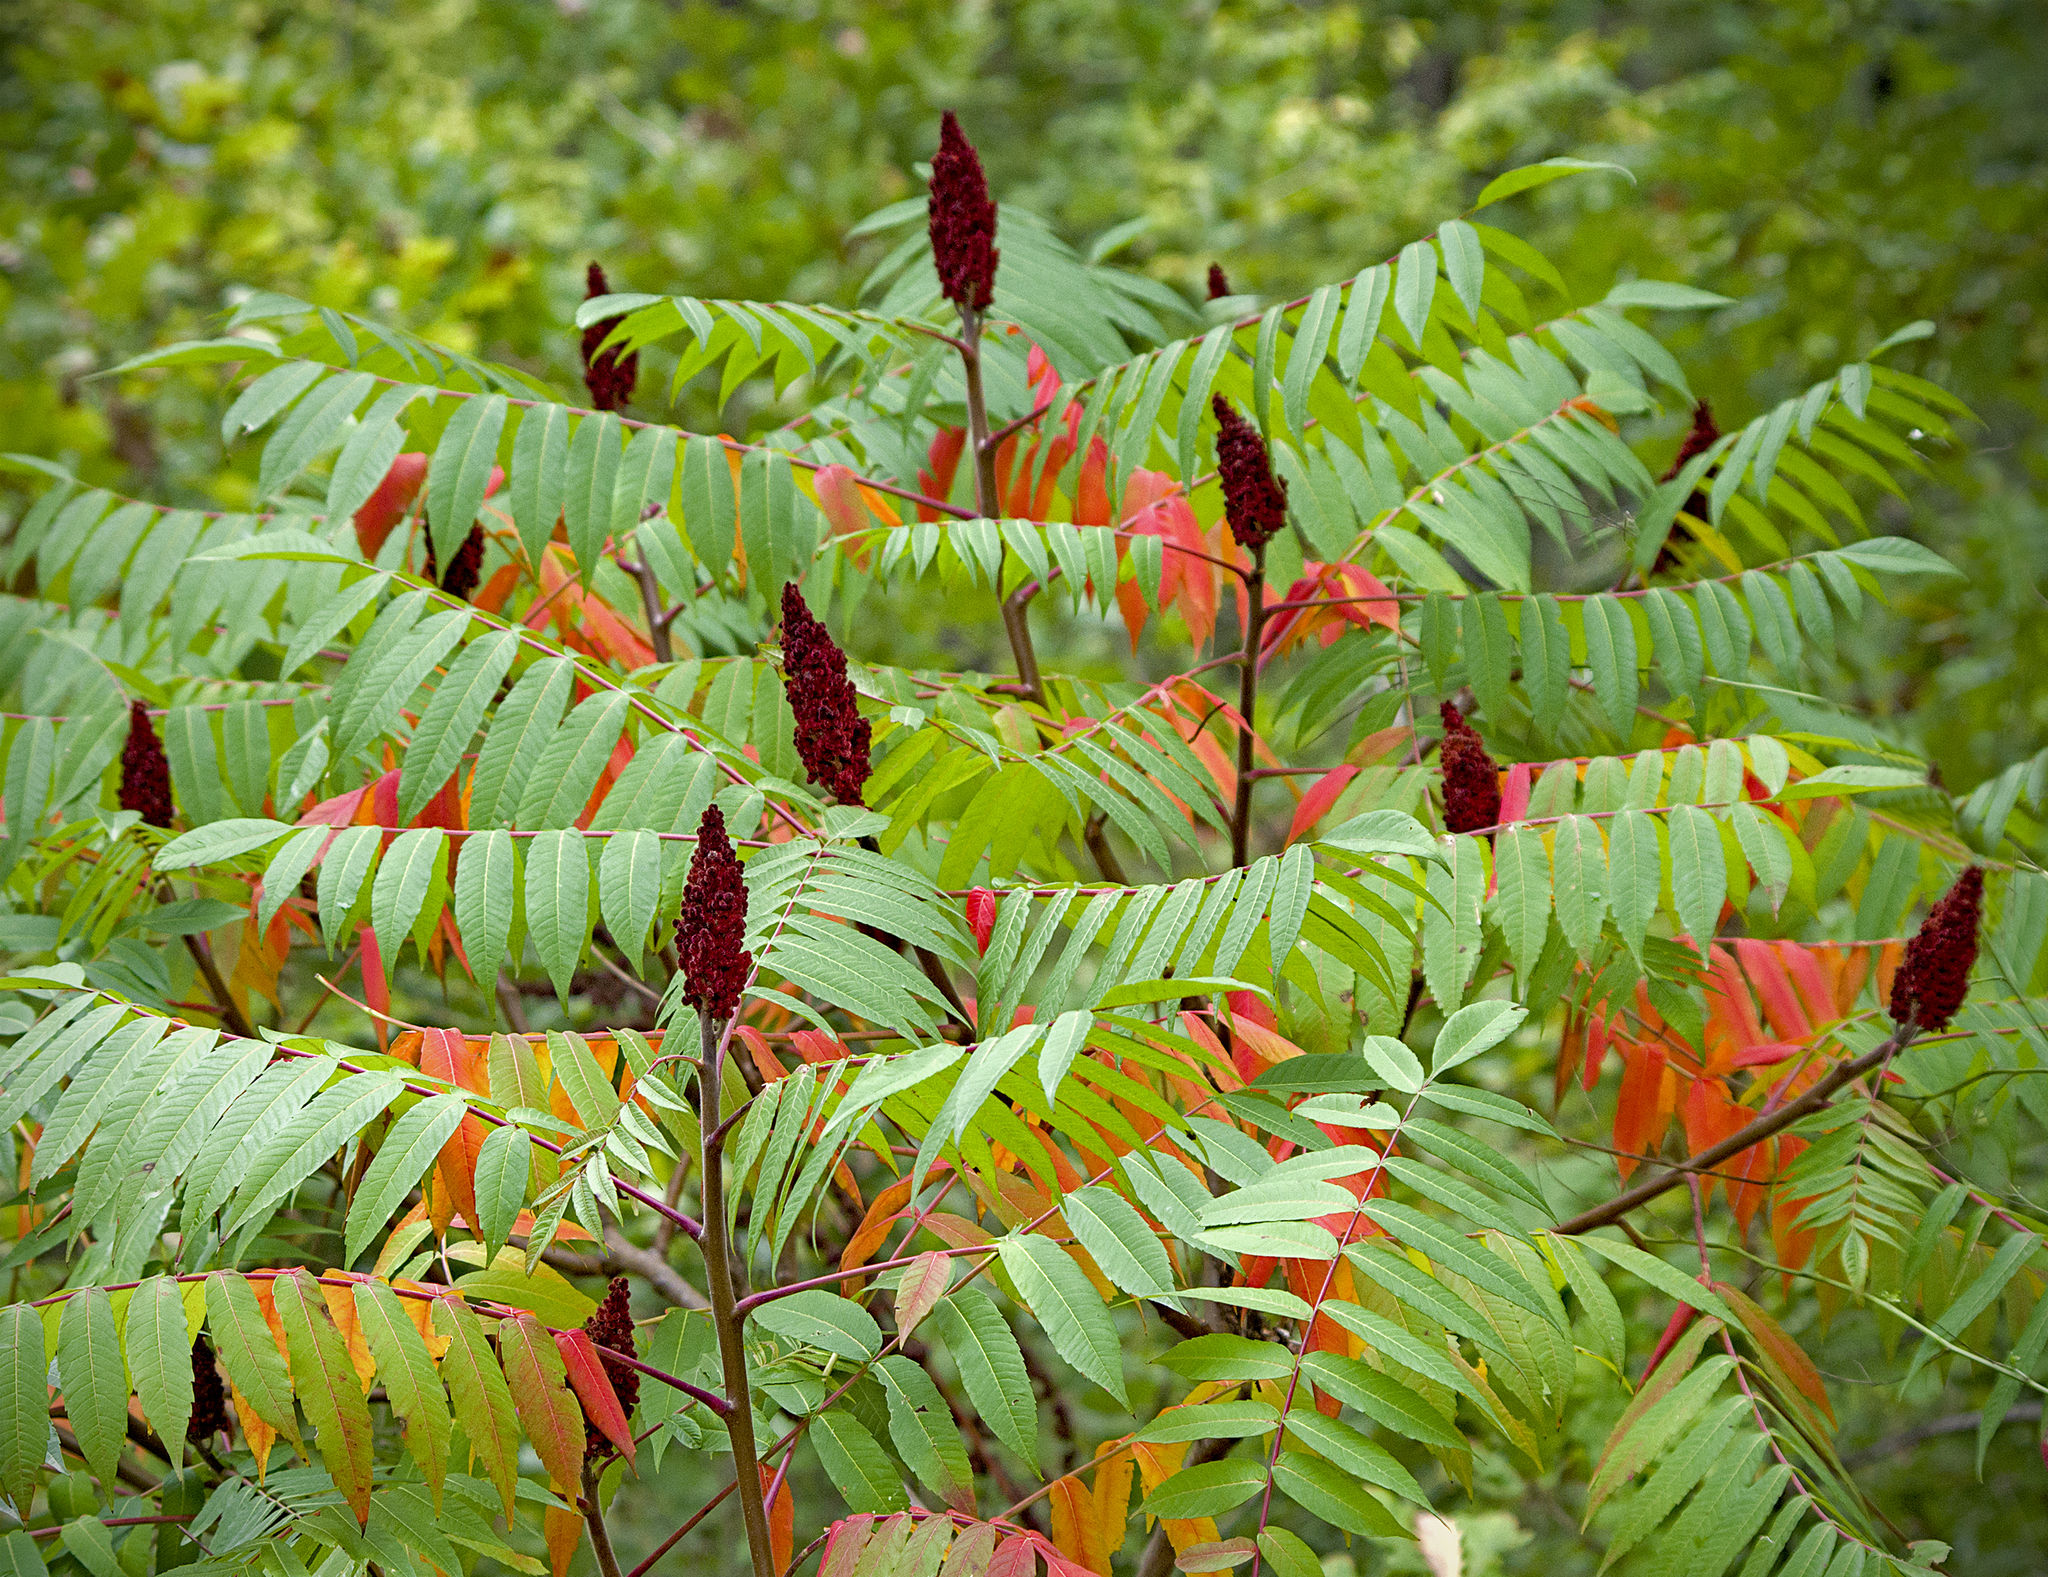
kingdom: Plantae
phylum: Tracheophyta
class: Magnoliopsida
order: Sapindales
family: Anacardiaceae
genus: Rhus
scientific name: Rhus typhina
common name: Staghorn sumac
